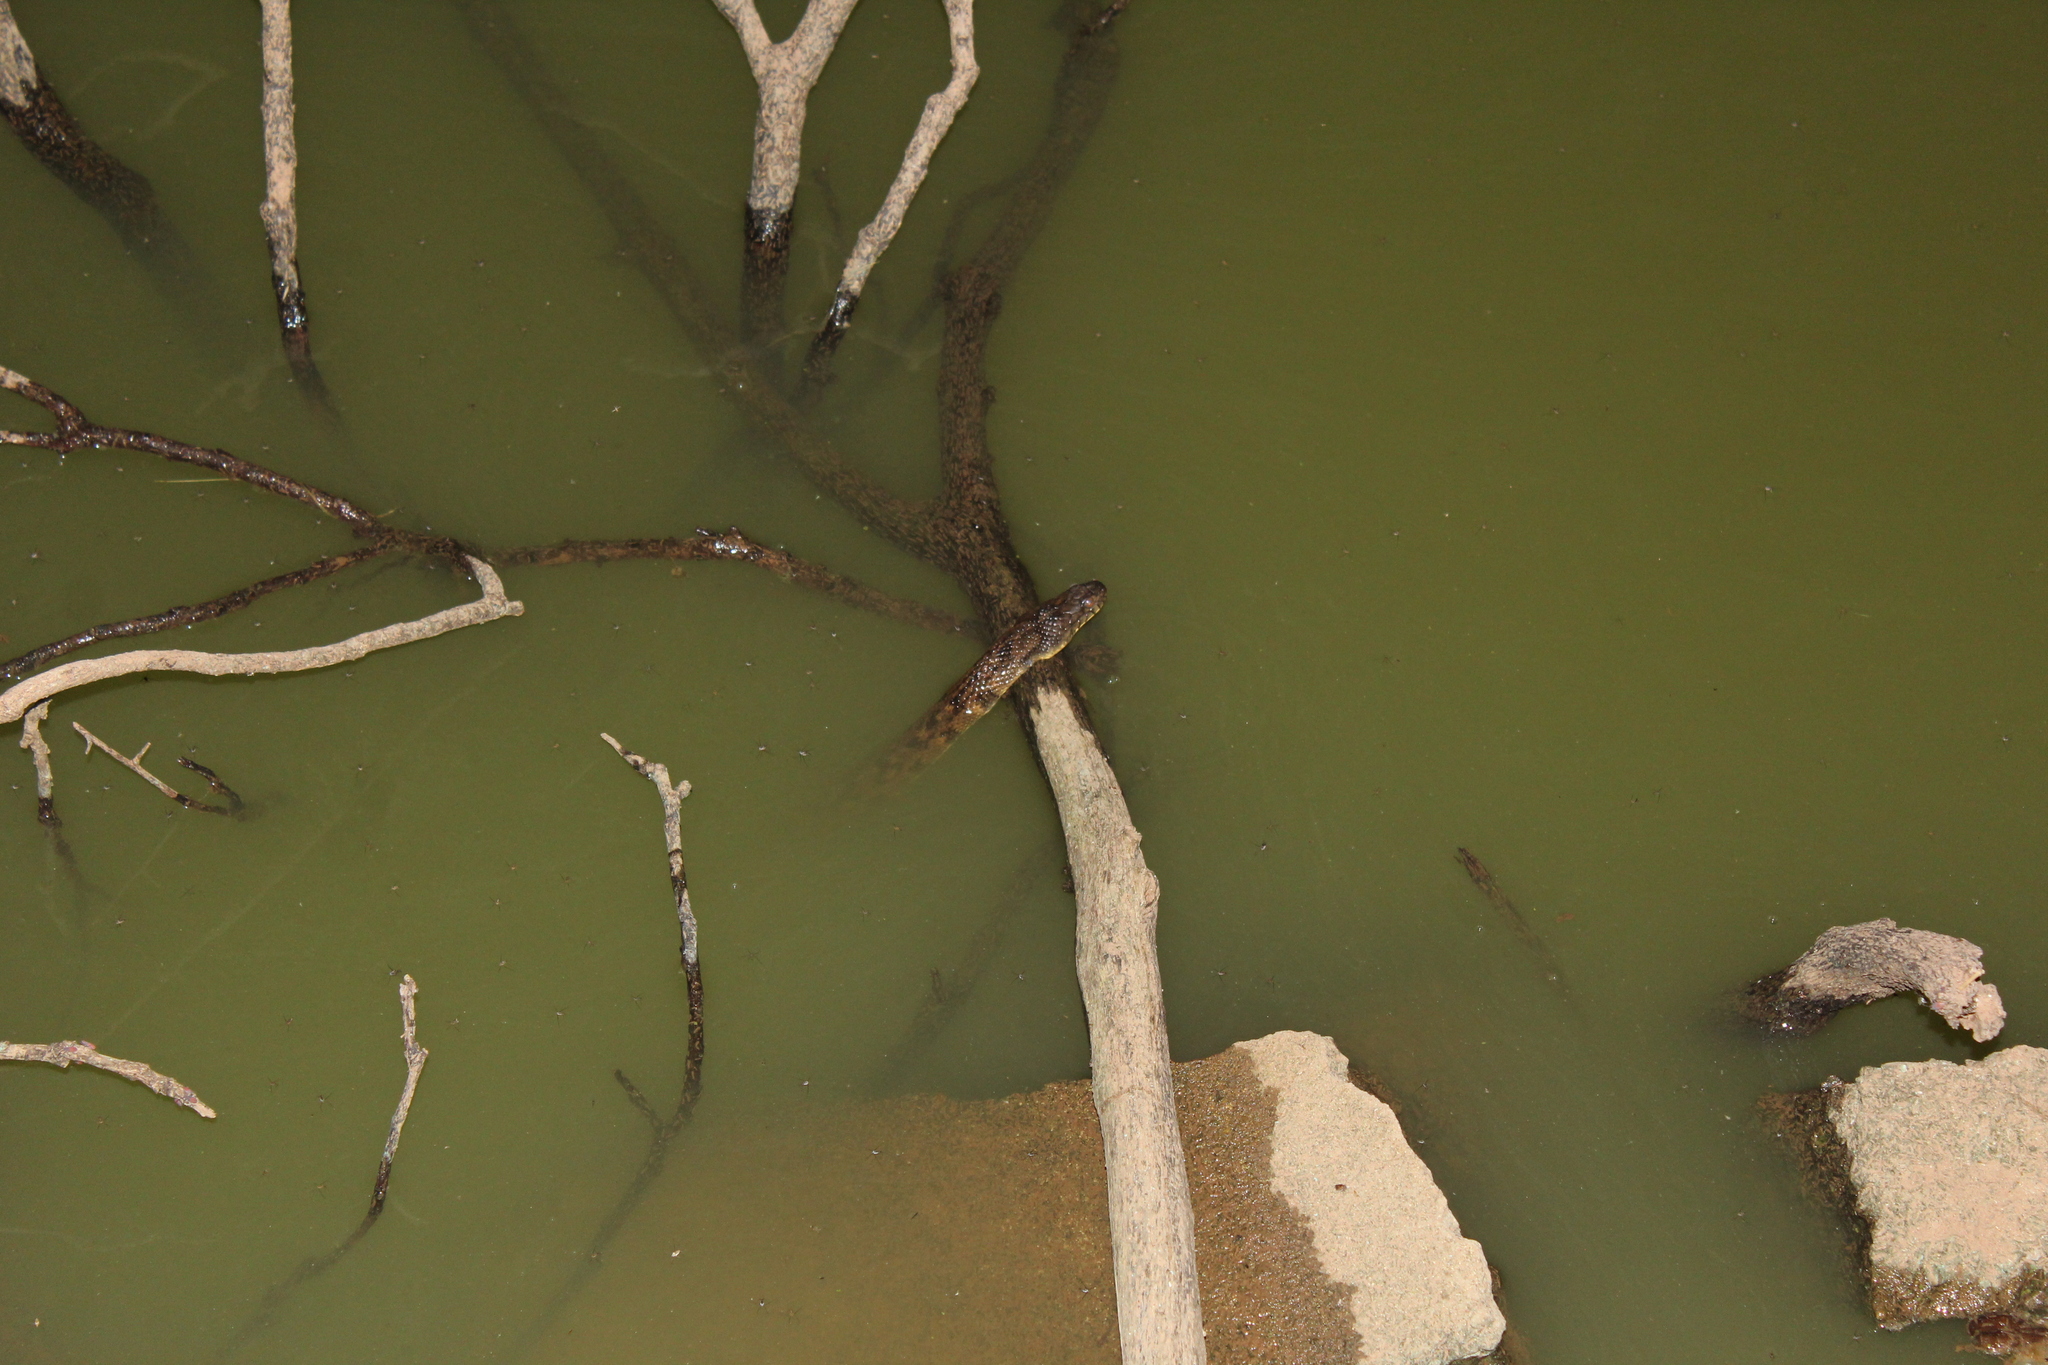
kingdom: Animalia
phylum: Chordata
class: Squamata
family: Colubridae
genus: Nerodia
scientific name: Nerodia rhombifer
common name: Diamondback water snake
